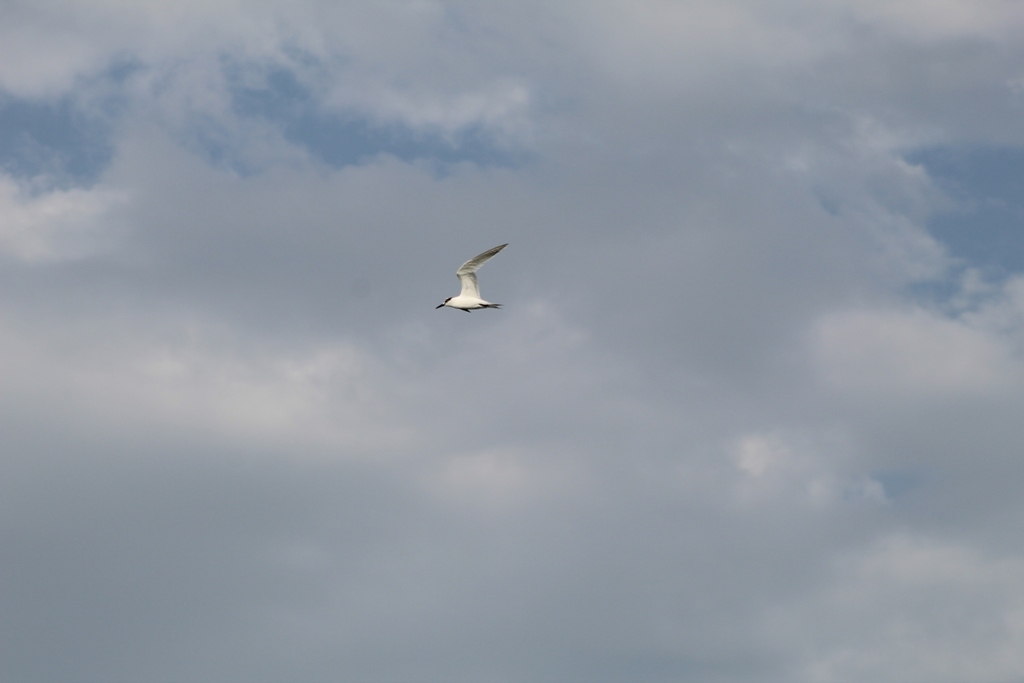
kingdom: Animalia
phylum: Chordata
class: Aves
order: Charadriiformes
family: Laridae
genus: Gelochelidon
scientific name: Gelochelidon nilotica
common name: Gull-billed tern
